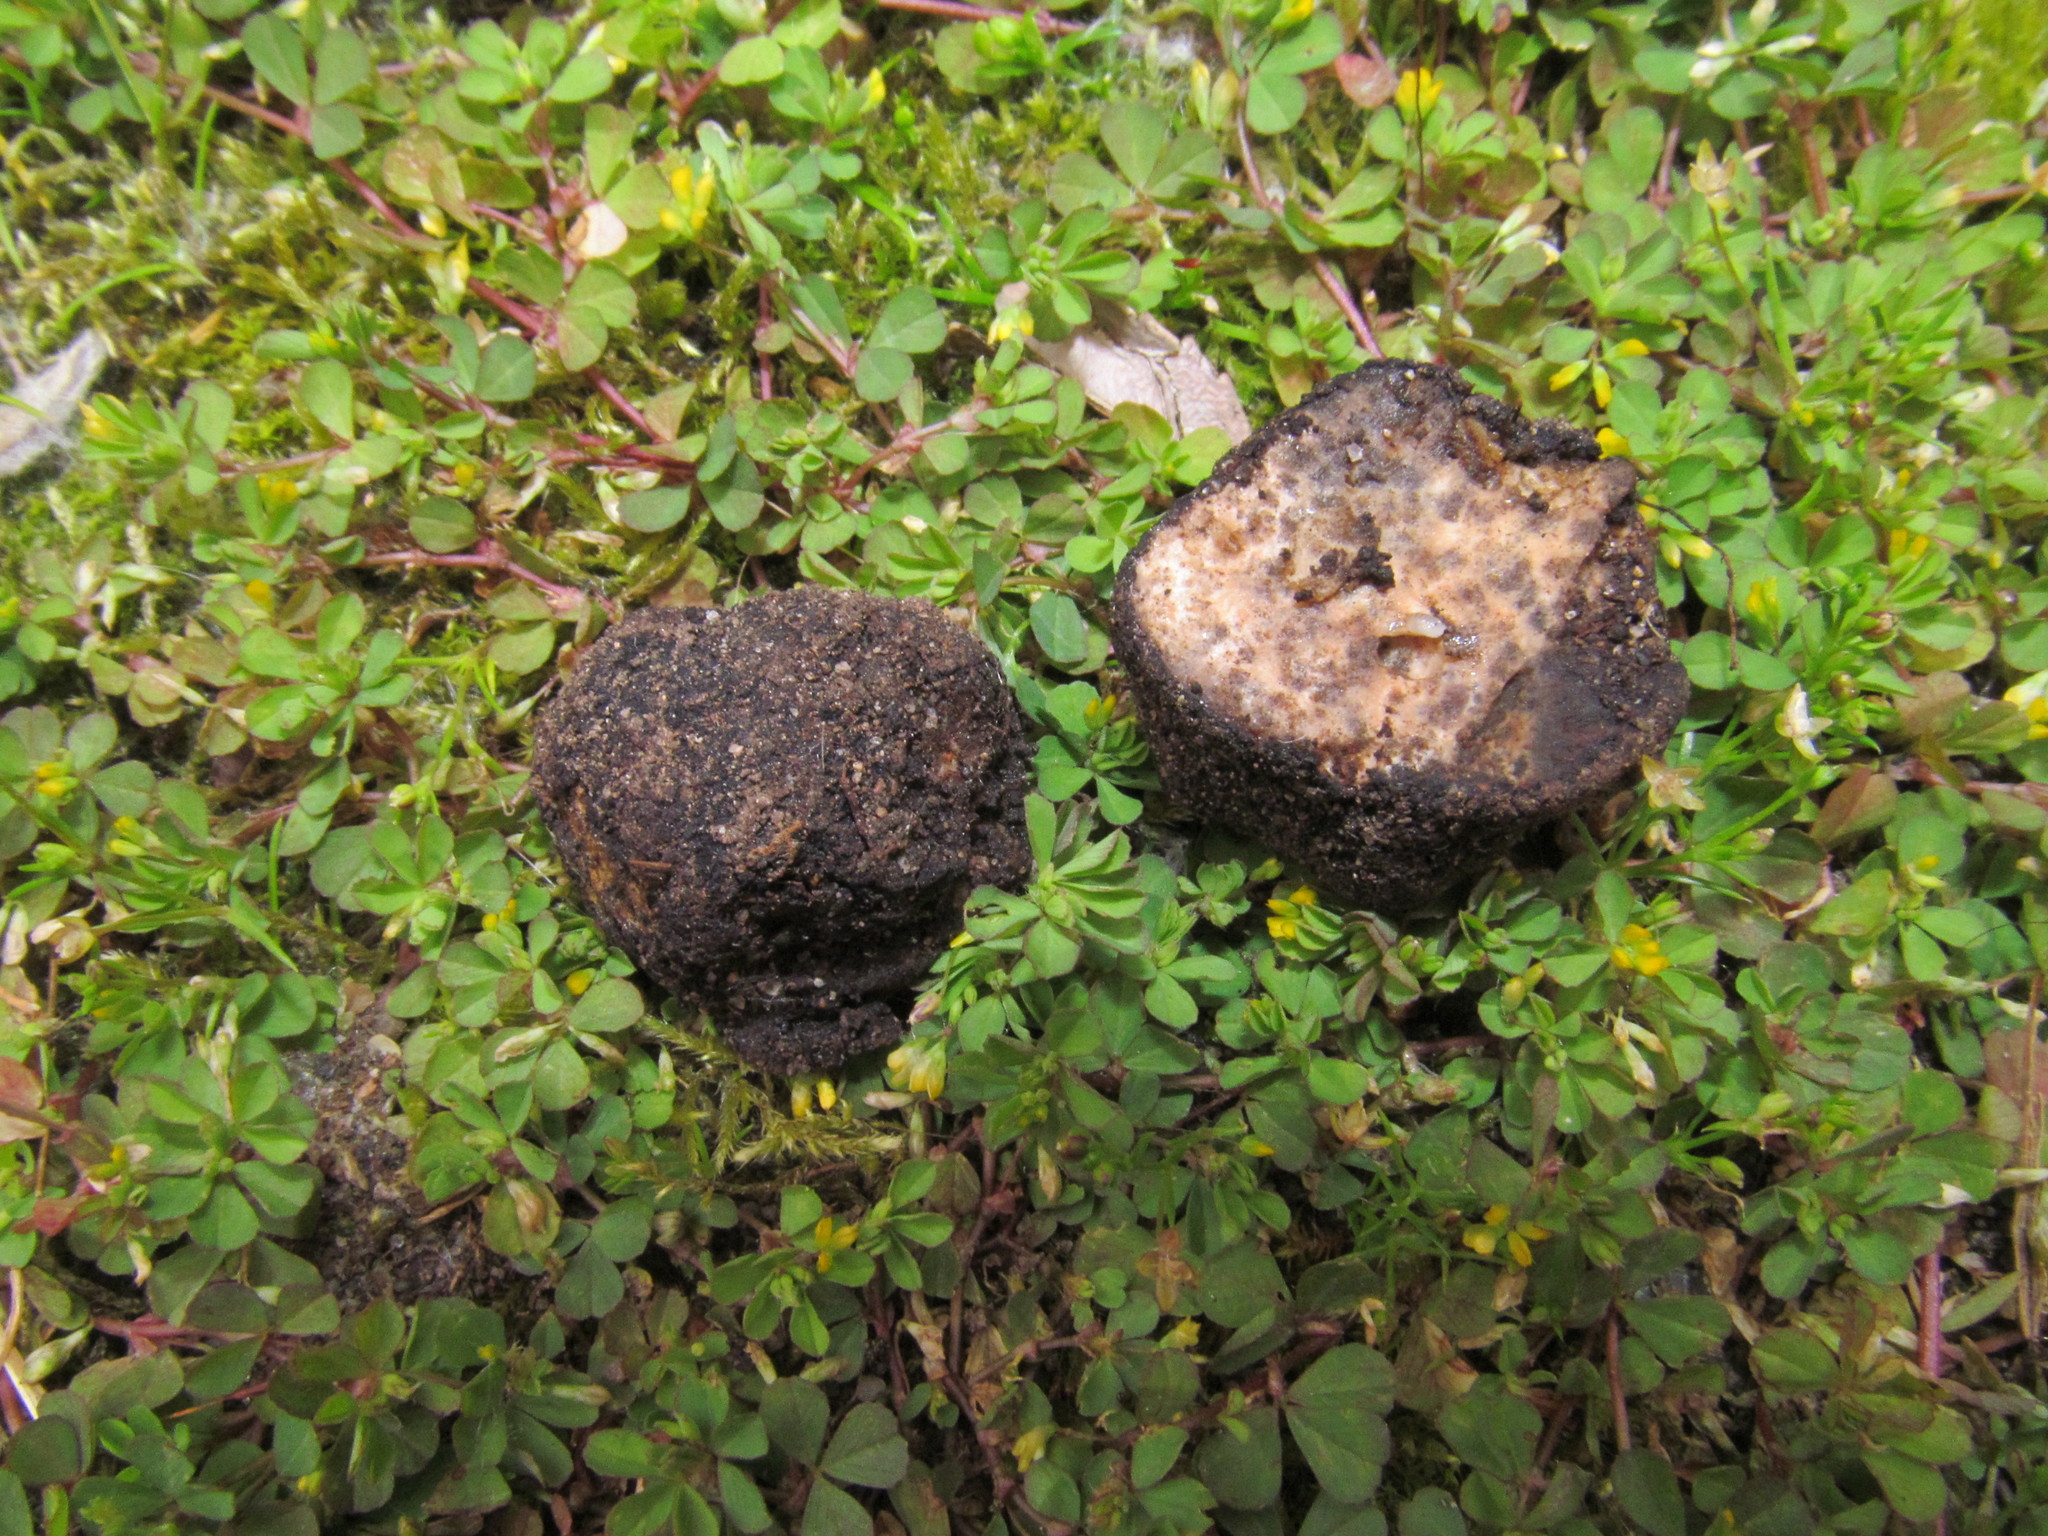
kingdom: Fungi
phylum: Ascomycota
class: Pezizomycetes
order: Pezizales
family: Morchellaceae
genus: Leucangium
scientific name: Leucangium carthusianum
